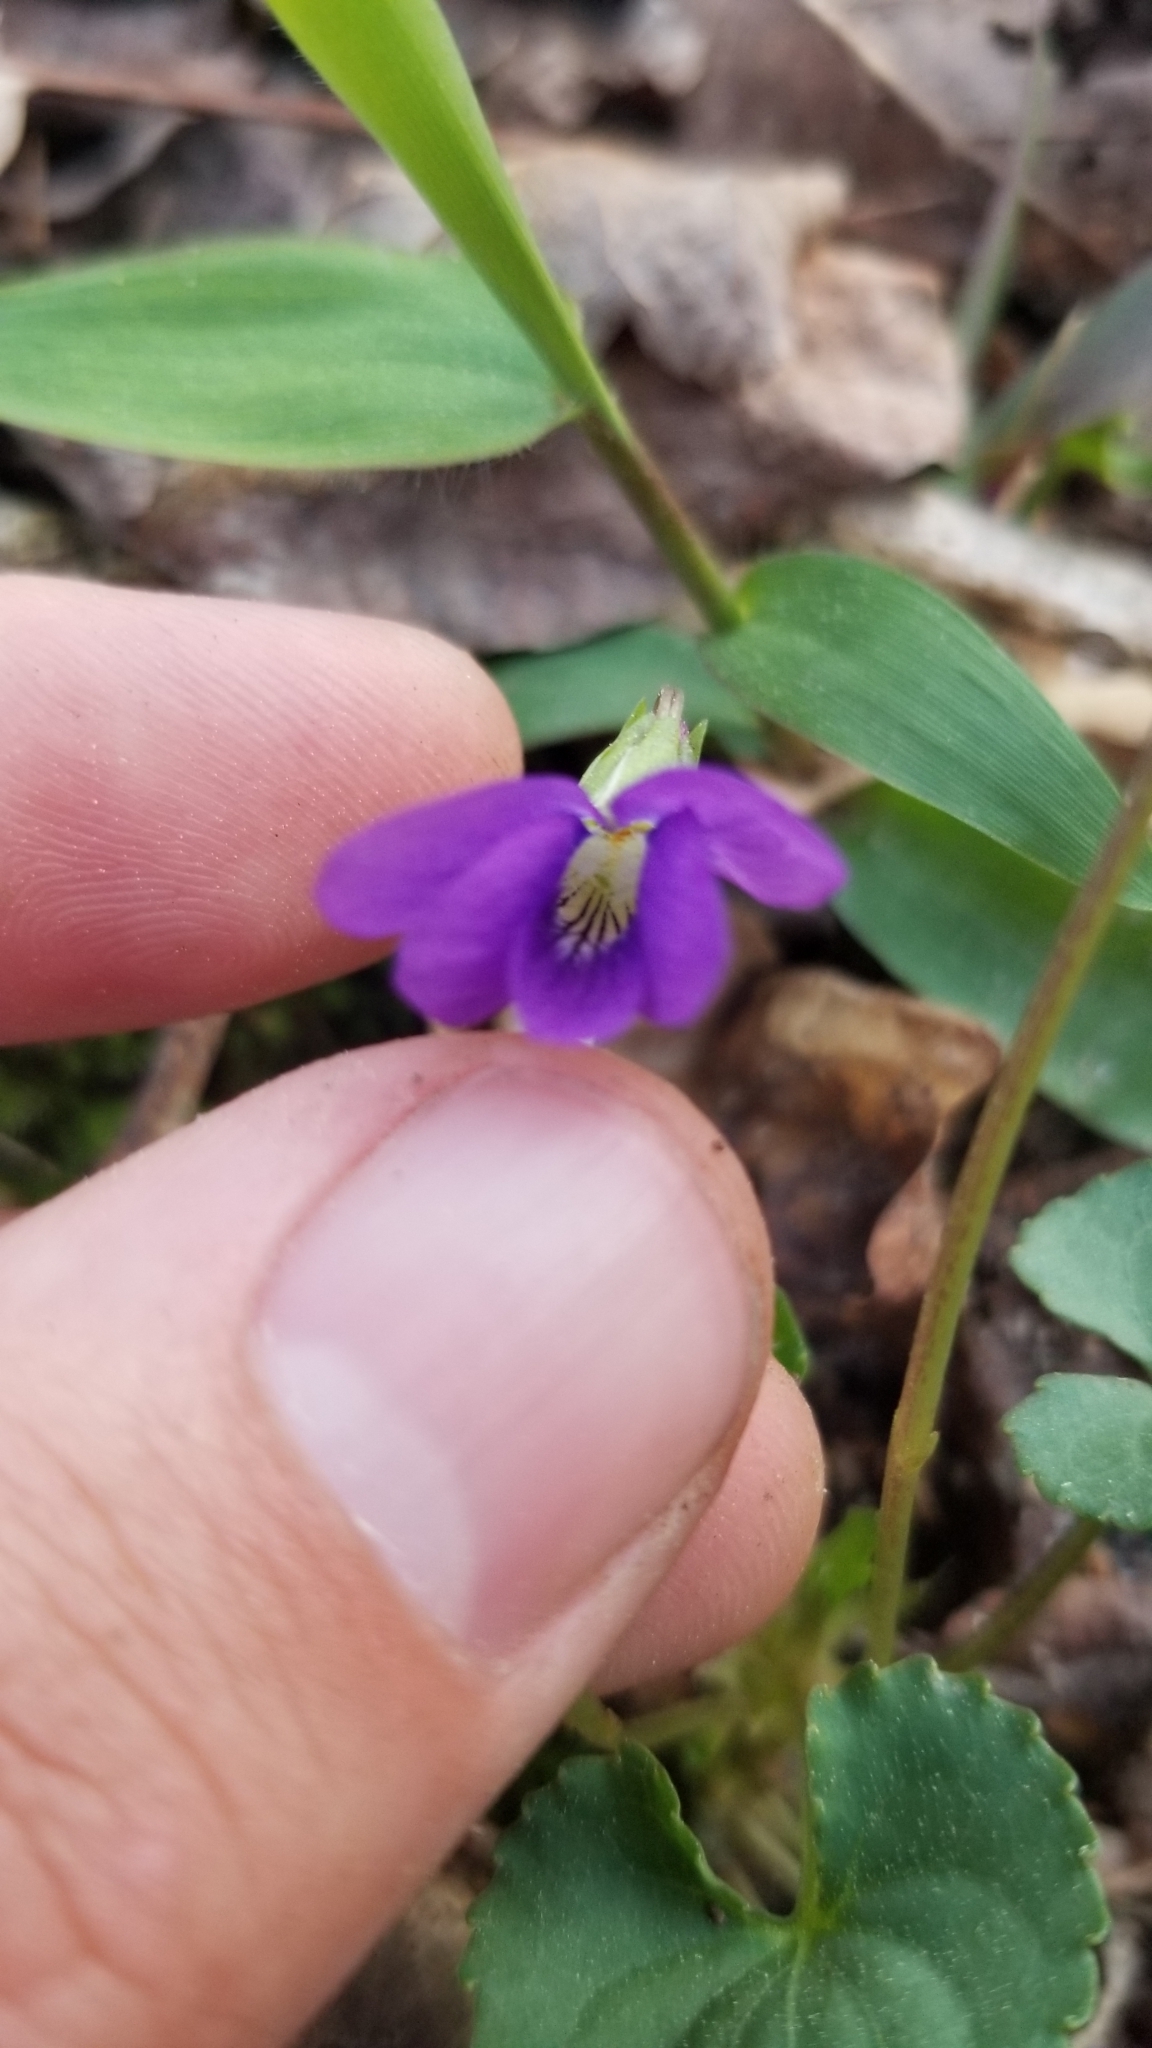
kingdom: Plantae
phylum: Tracheophyta
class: Magnoliopsida
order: Malpighiales
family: Violaceae
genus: Viola
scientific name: Viola sororia
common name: Dooryard violet
